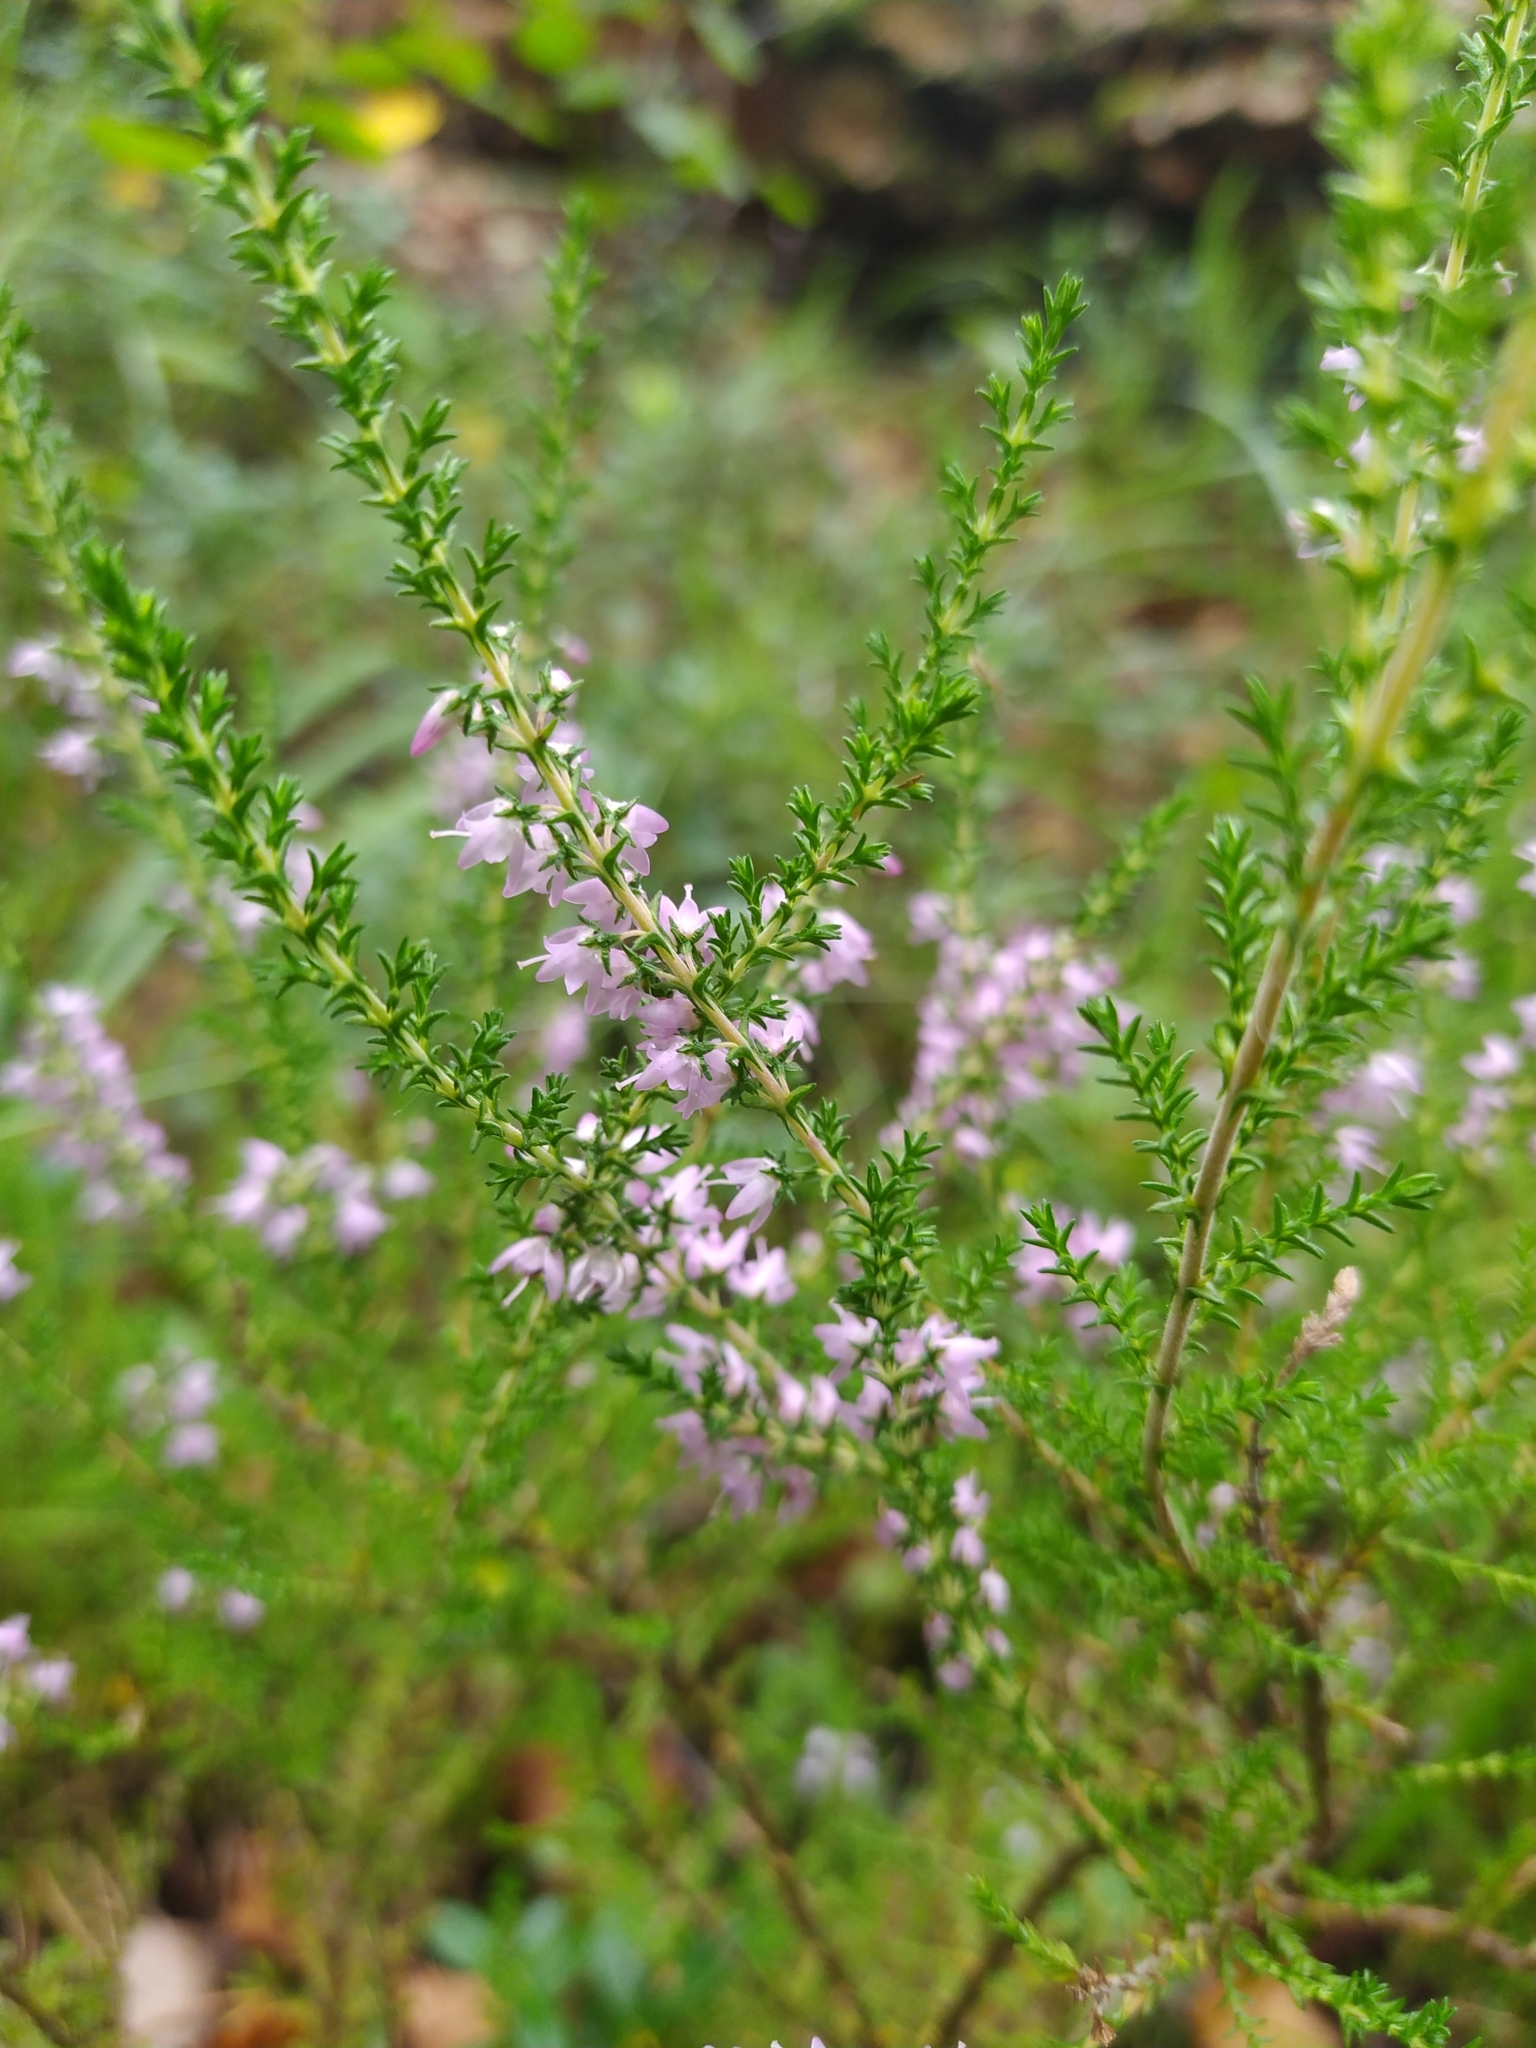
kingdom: Plantae
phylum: Tracheophyta
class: Magnoliopsida
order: Ericales
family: Ericaceae
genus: Calluna
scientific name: Calluna vulgaris
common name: Heather
